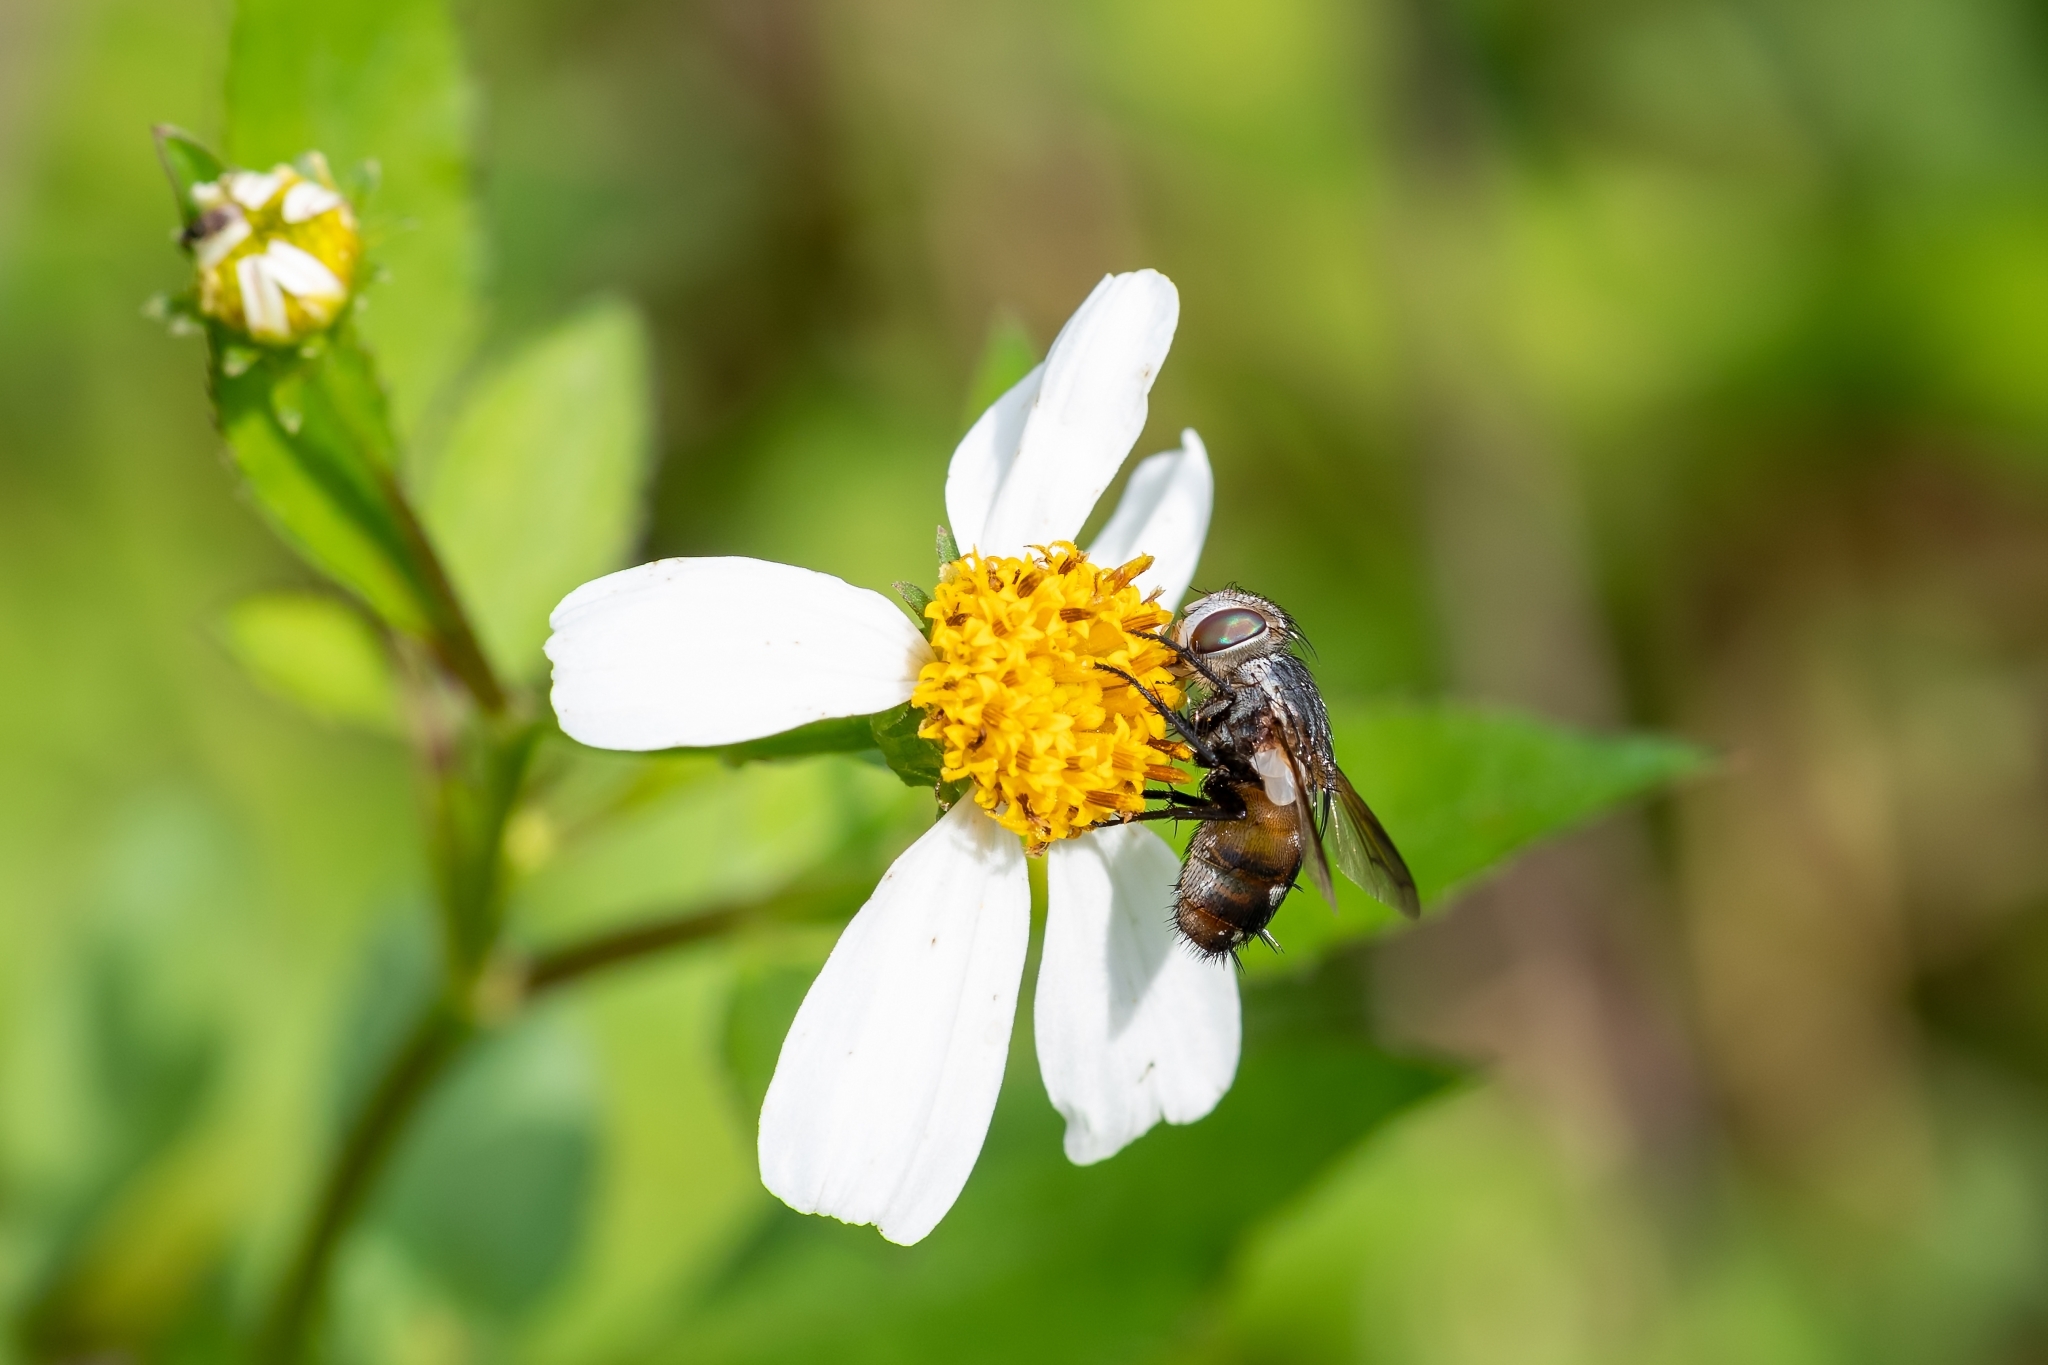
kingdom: Animalia
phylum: Arthropoda
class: Insecta
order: Diptera
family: Tachinidae
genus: Gonia
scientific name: Gonia crassicornis
